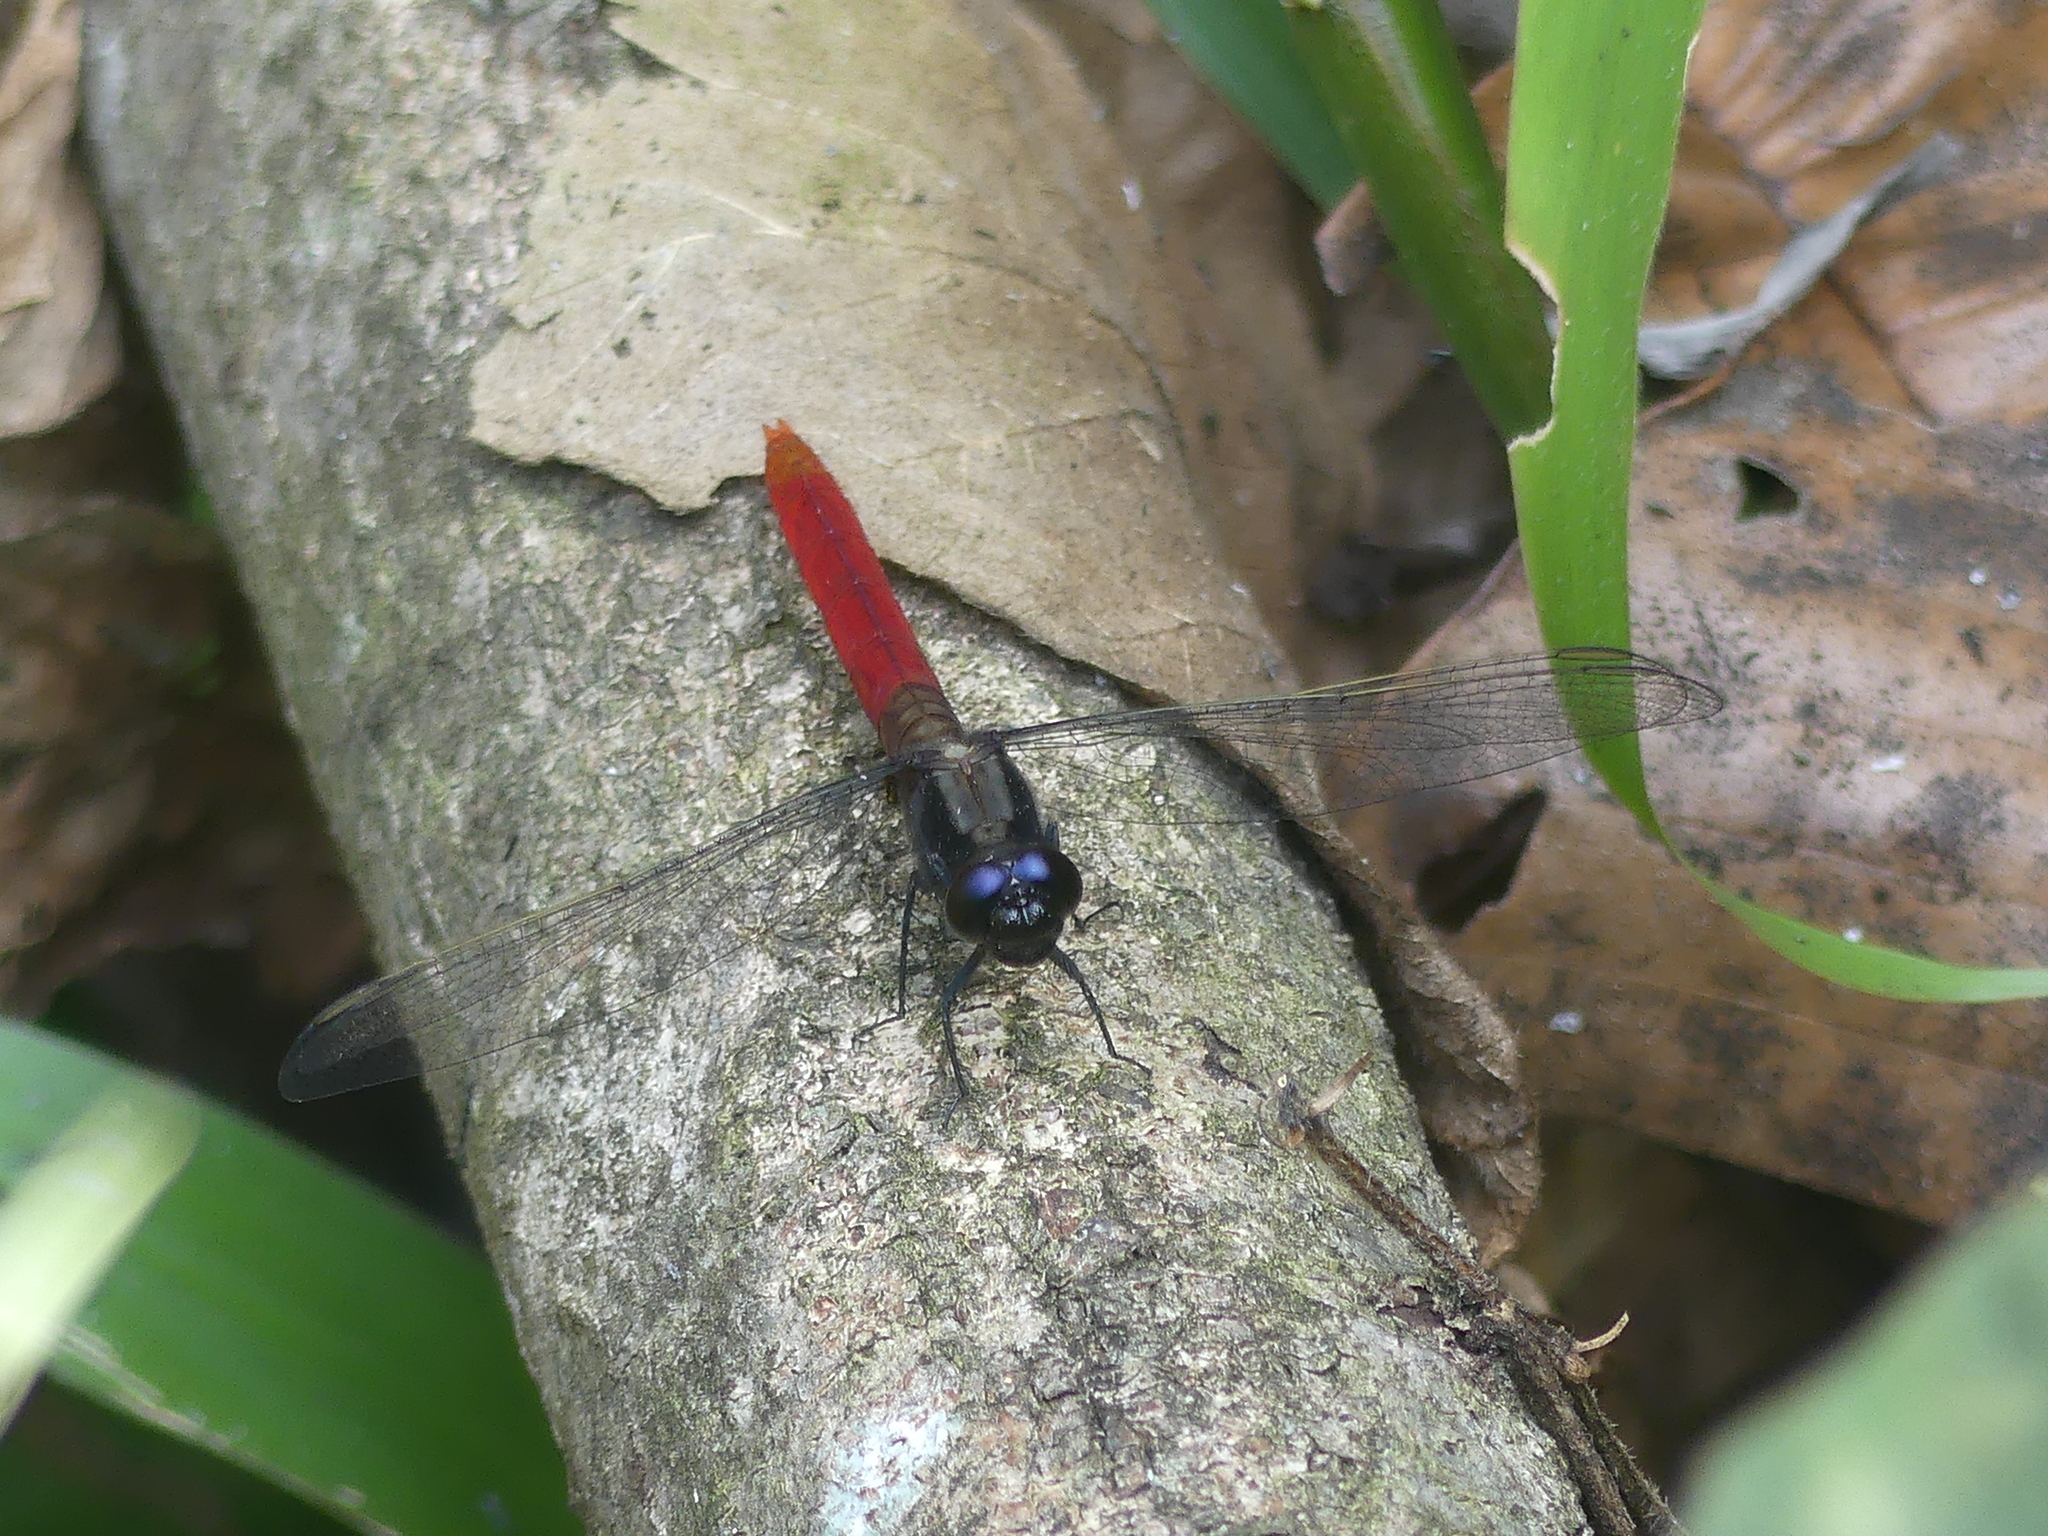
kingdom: Animalia
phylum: Arthropoda
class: Insecta
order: Odonata
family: Libellulidae
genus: Erythemis
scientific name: Erythemis peruviana
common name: Flame-tailed pondhawk
